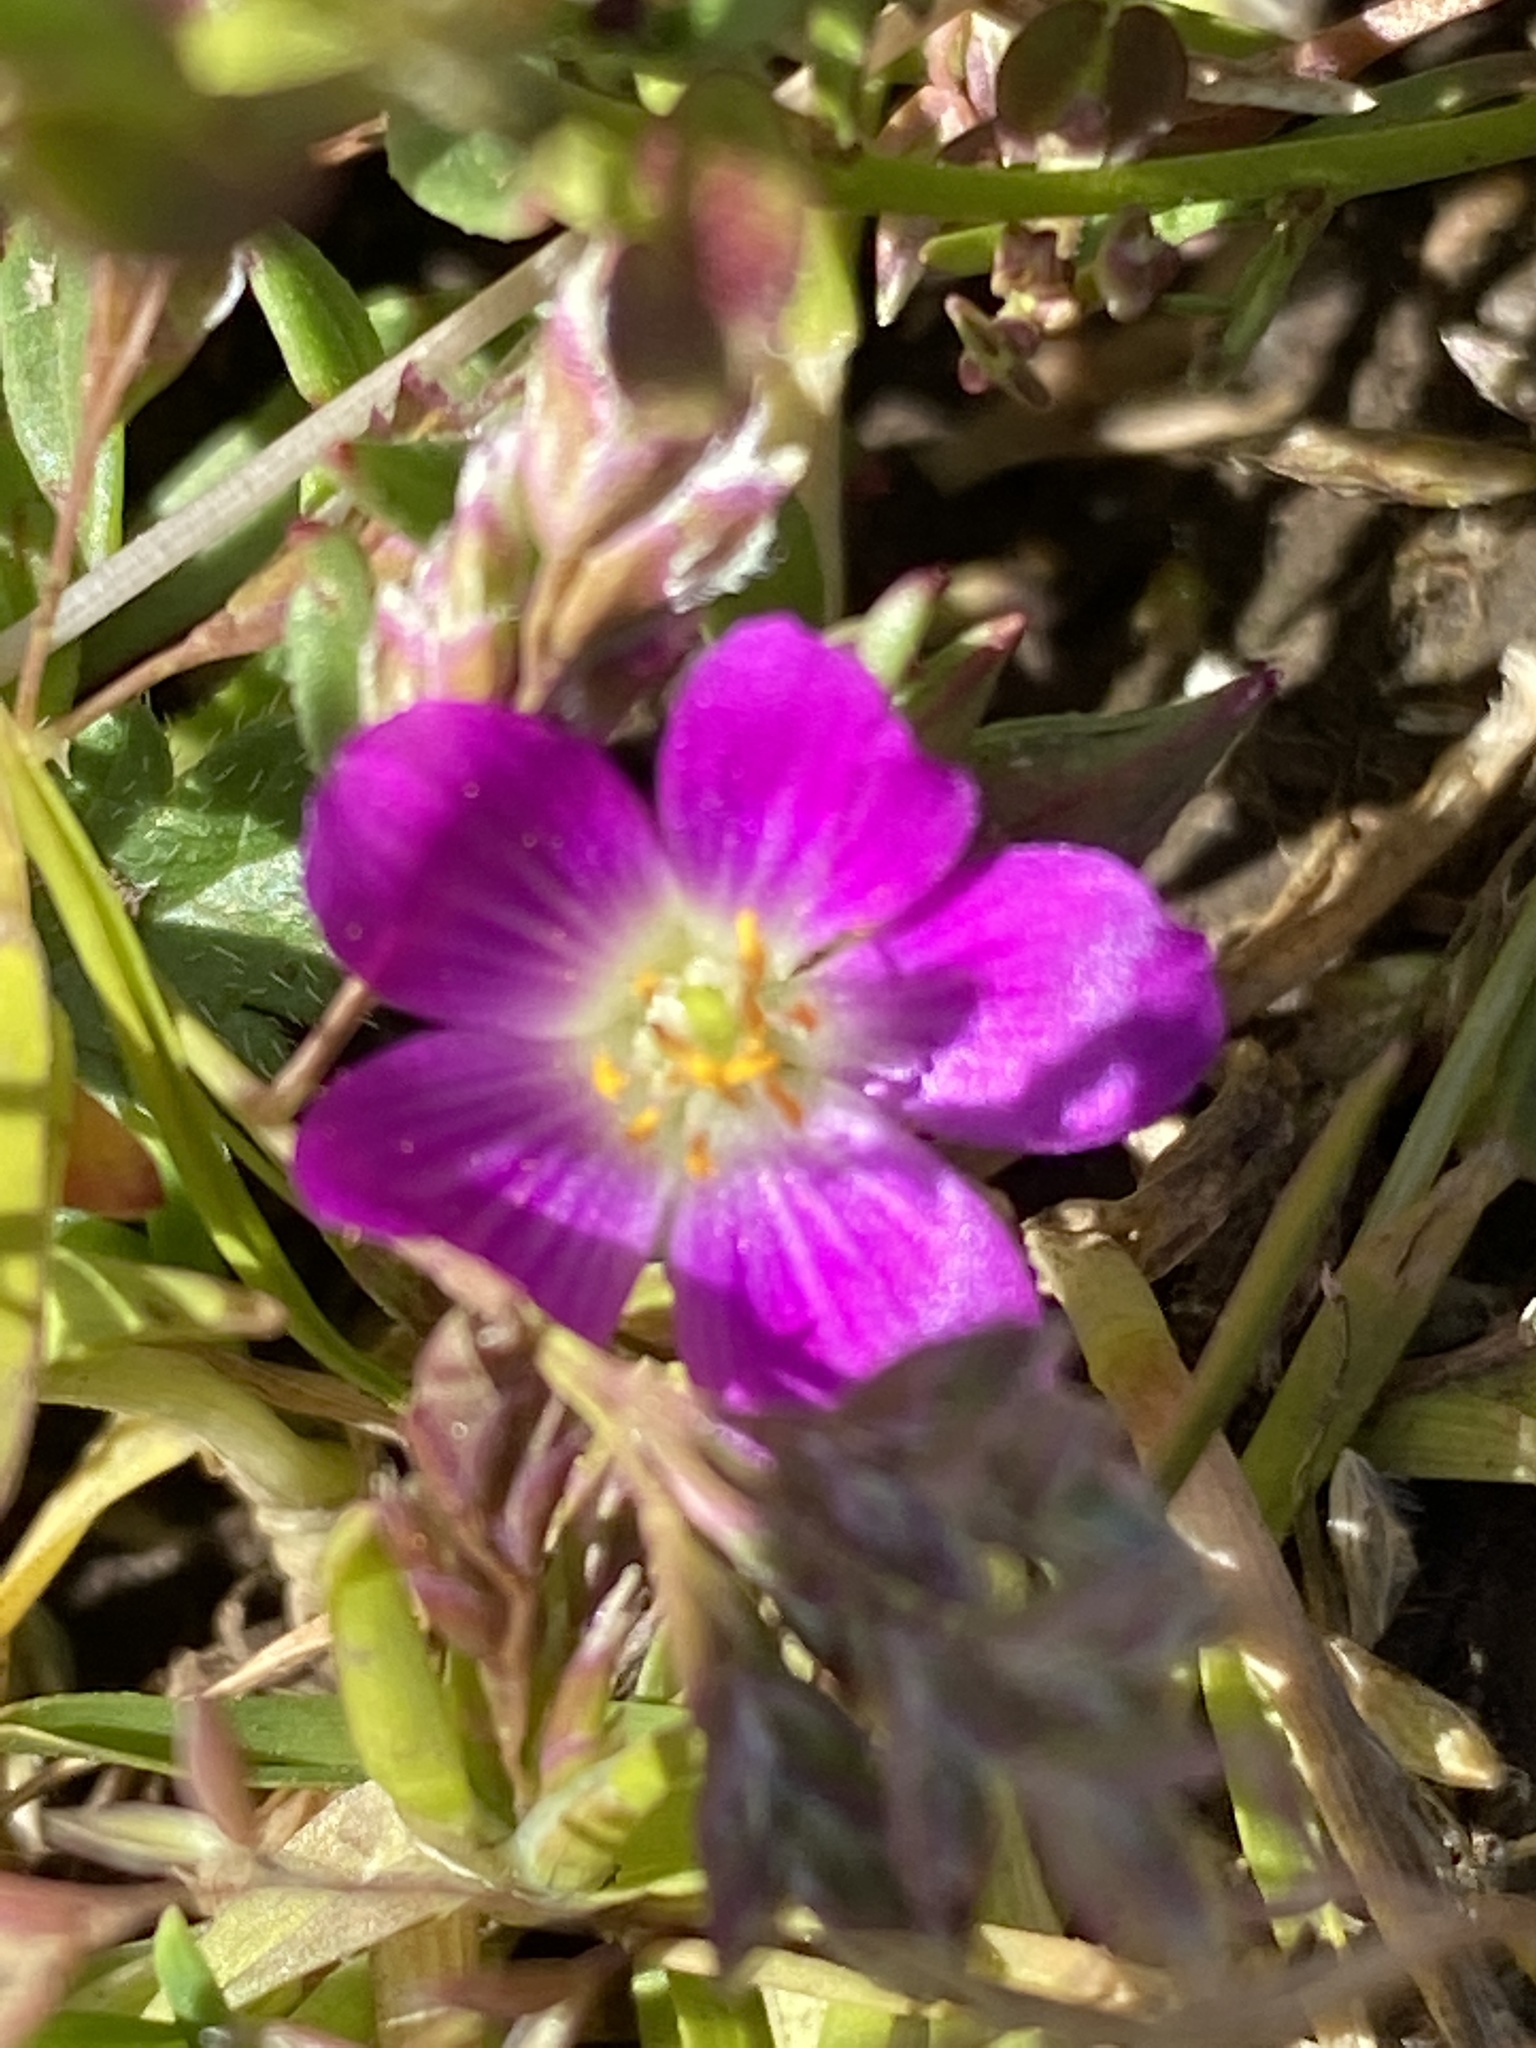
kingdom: Plantae
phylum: Tracheophyta
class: Magnoliopsida
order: Caryophyllales
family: Montiaceae
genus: Calandrinia
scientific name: Calandrinia menziesii
